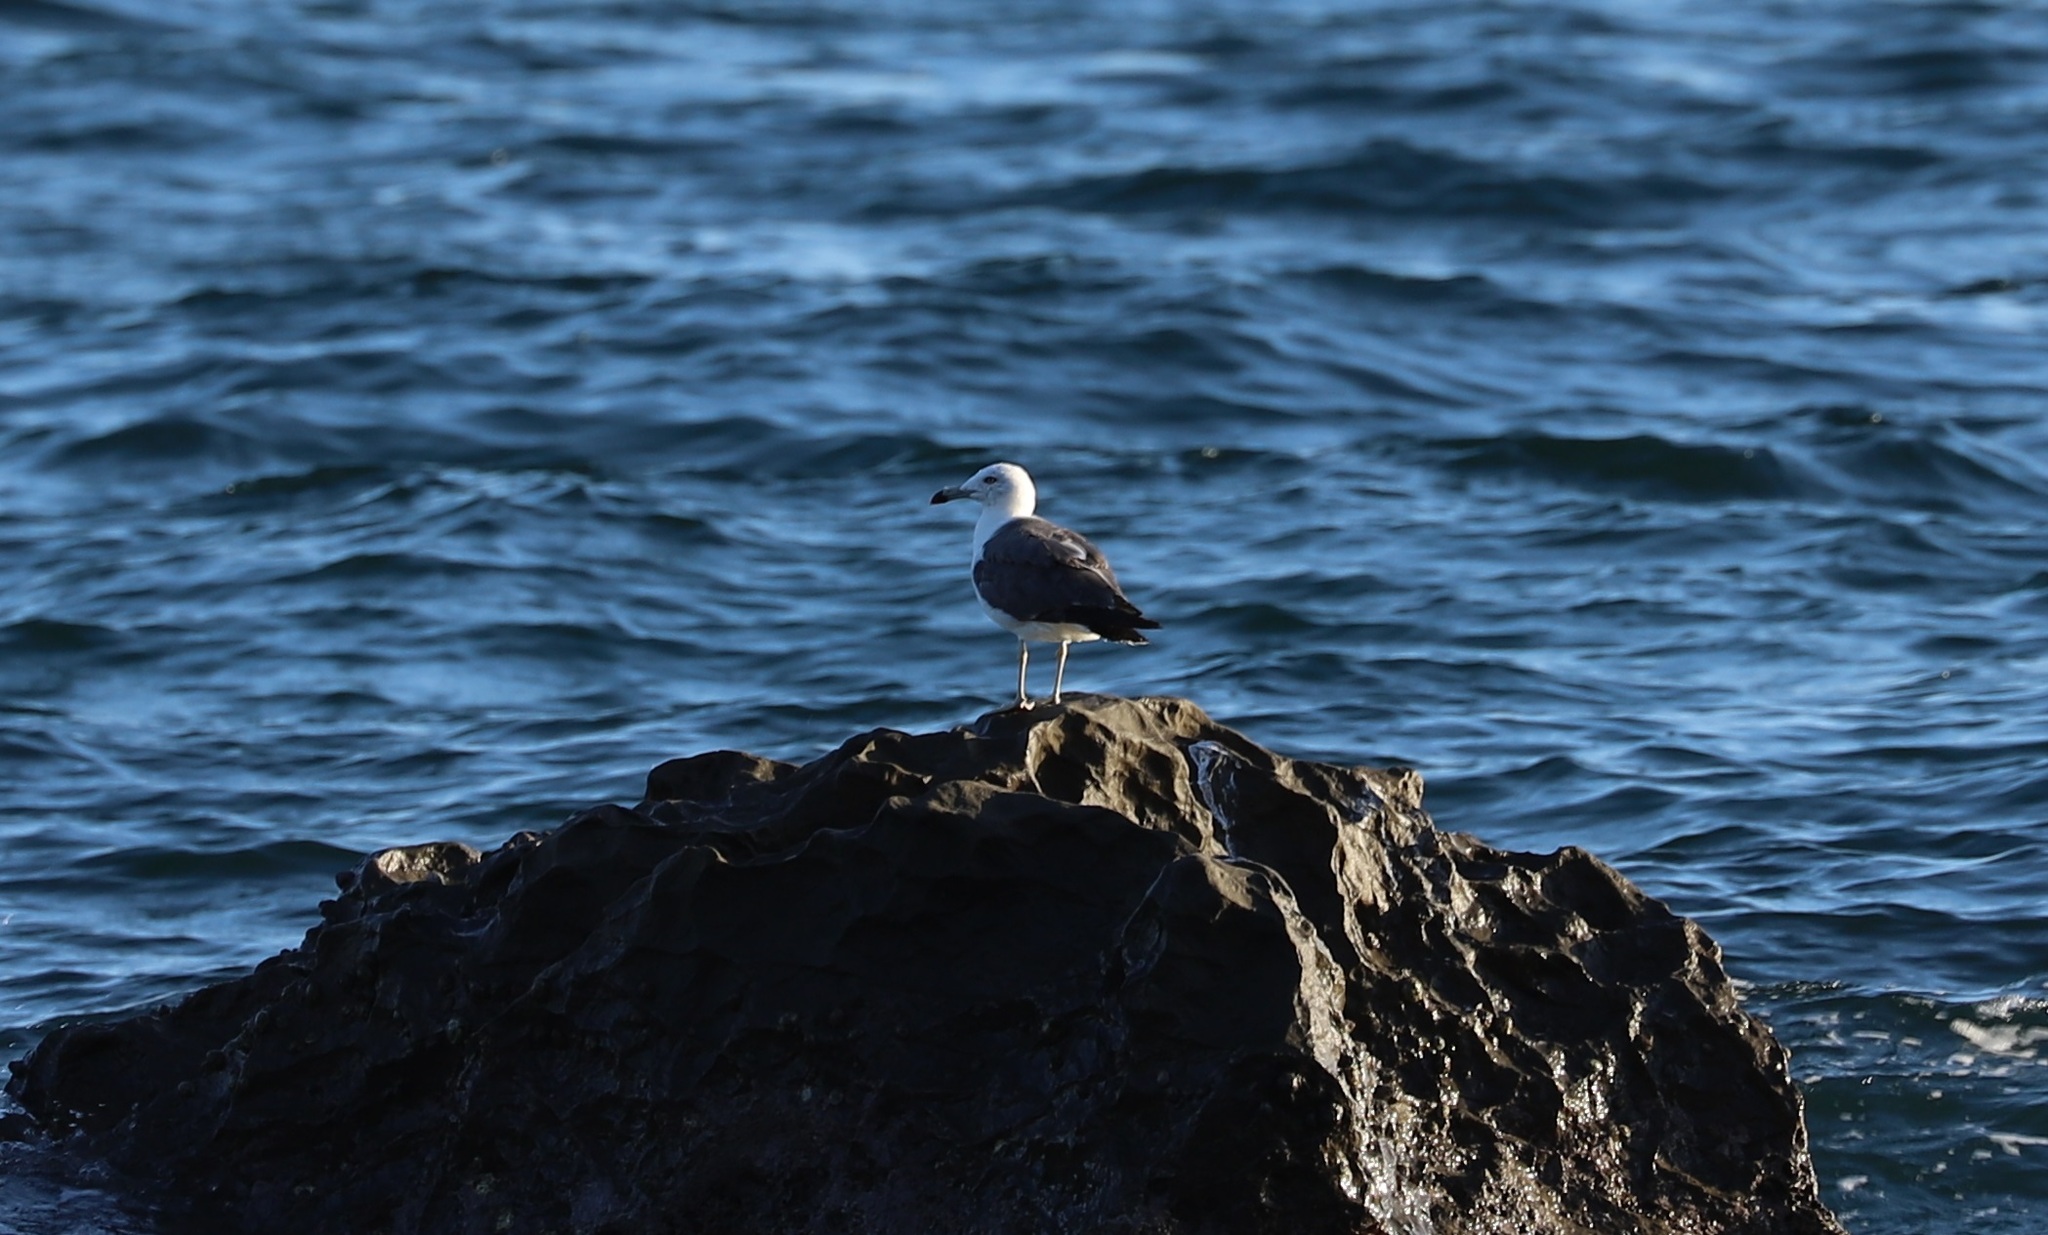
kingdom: Animalia
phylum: Chordata
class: Aves
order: Charadriiformes
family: Laridae
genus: Larus
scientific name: Larus crassirostris
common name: Black-tailed gull
